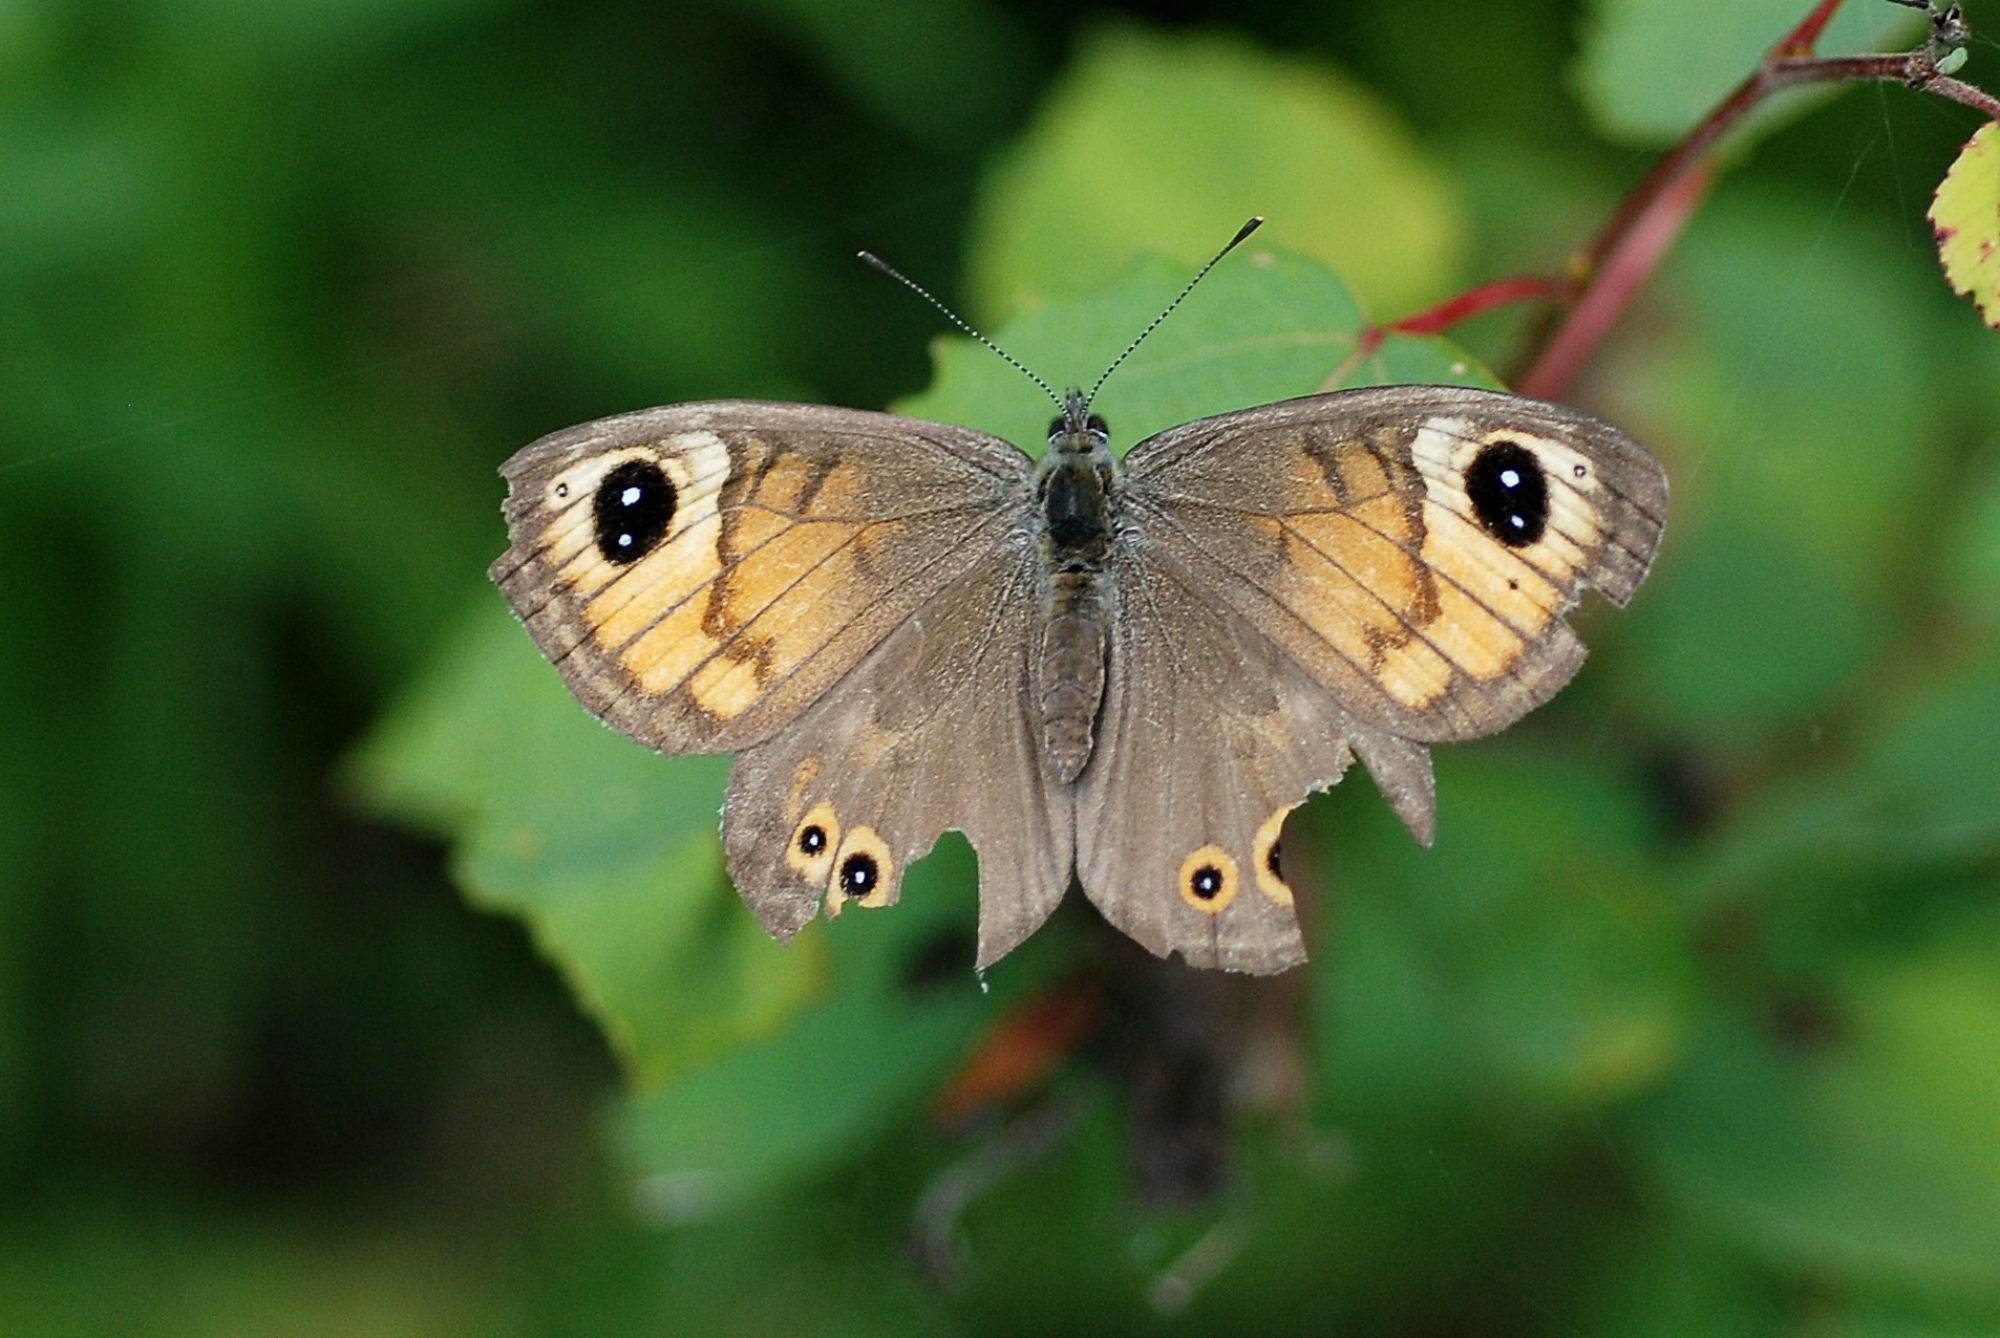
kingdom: Animalia
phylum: Arthropoda
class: Insecta
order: Lepidoptera
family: Nymphalidae
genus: Pararge
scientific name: Pararge Lasiommata maera
